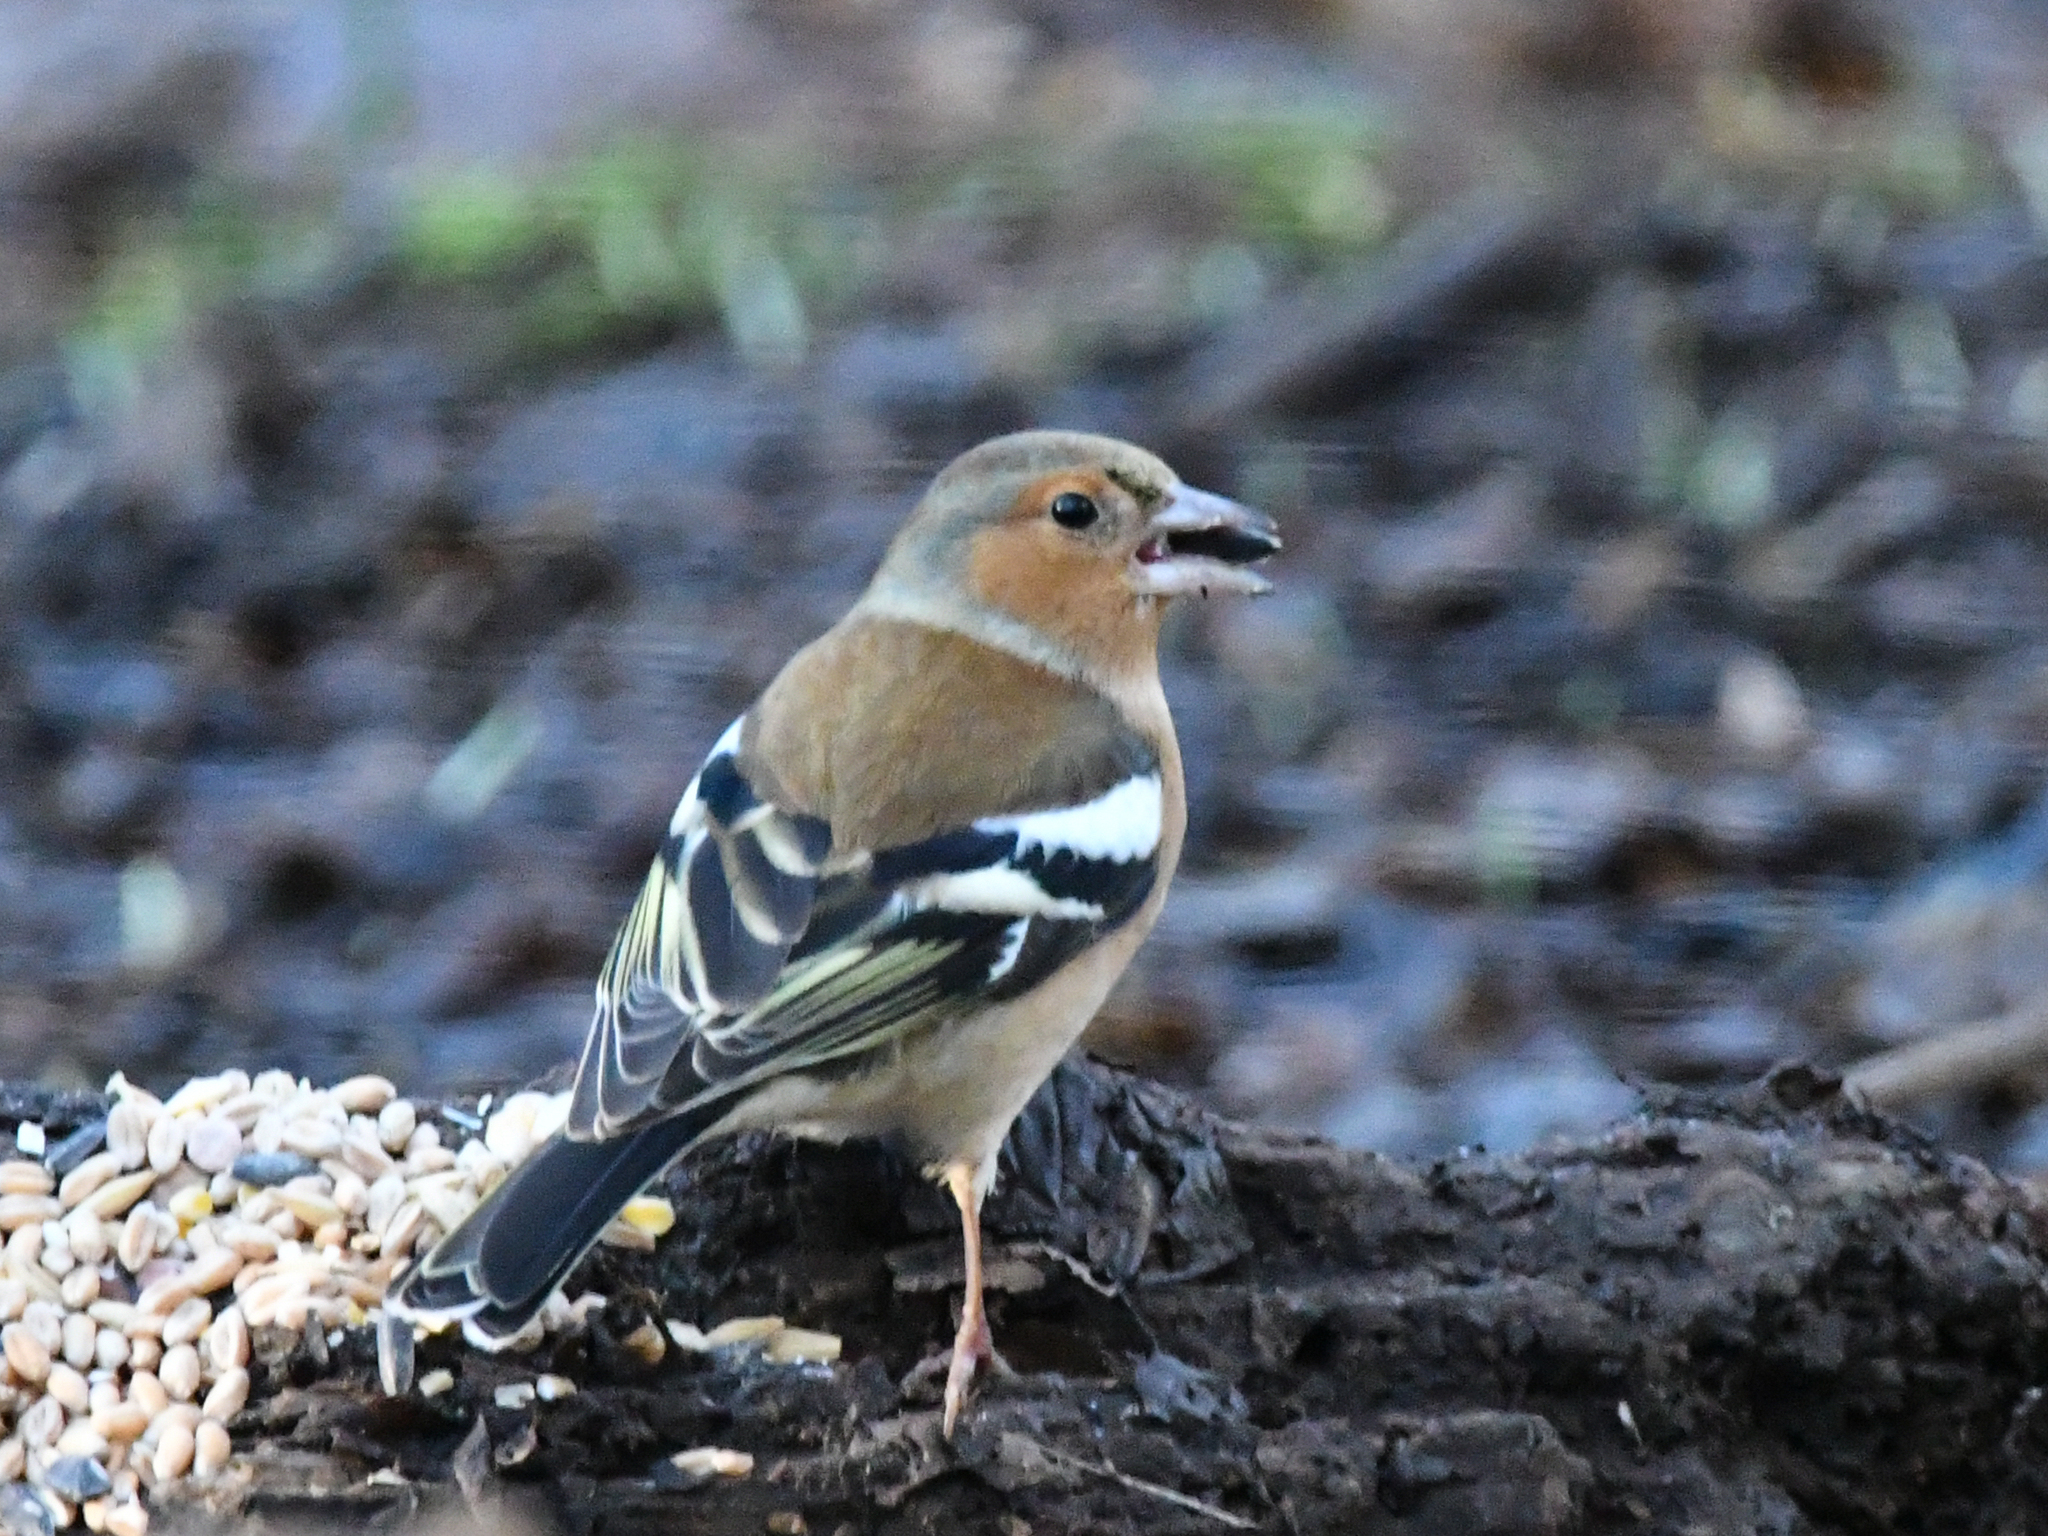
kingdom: Animalia
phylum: Chordata
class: Aves
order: Passeriformes
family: Fringillidae
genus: Fringilla
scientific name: Fringilla coelebs
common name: Common chaffinch
